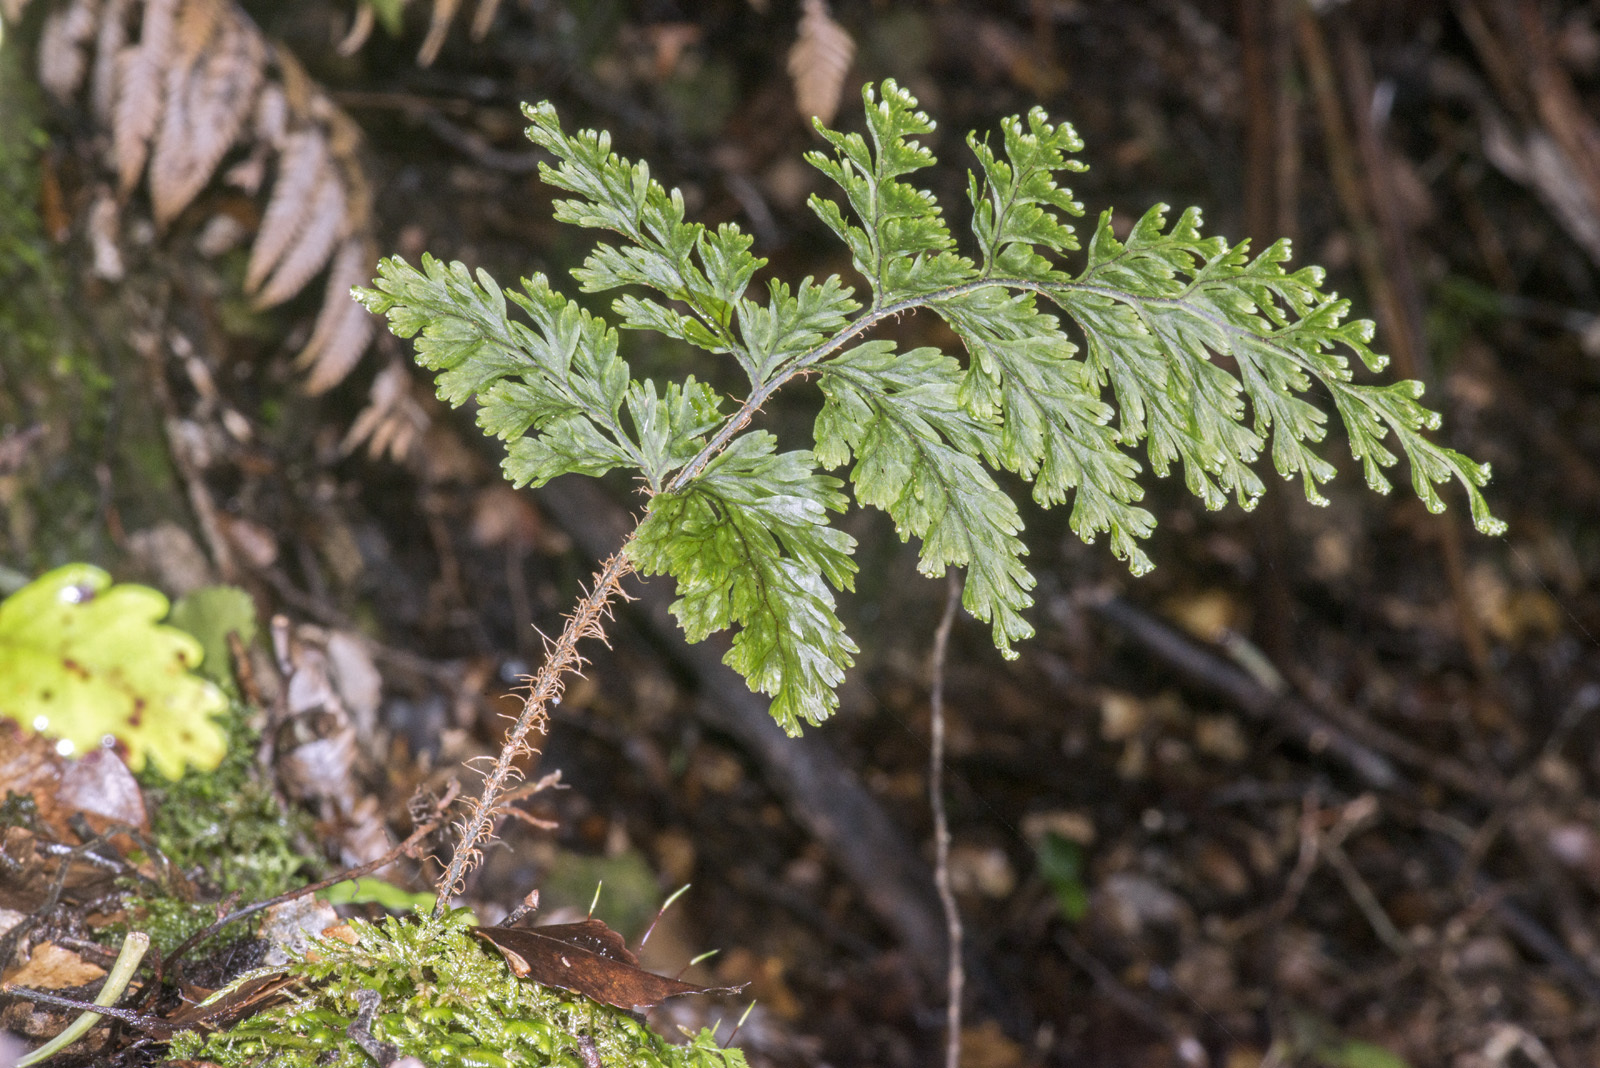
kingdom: Plantae
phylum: Tracheophyta
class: Polypodiopsida
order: Hymenophyllales
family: Hymenophyllaceae
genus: Hymenophyllum
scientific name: Hymenophyllum scabrum
